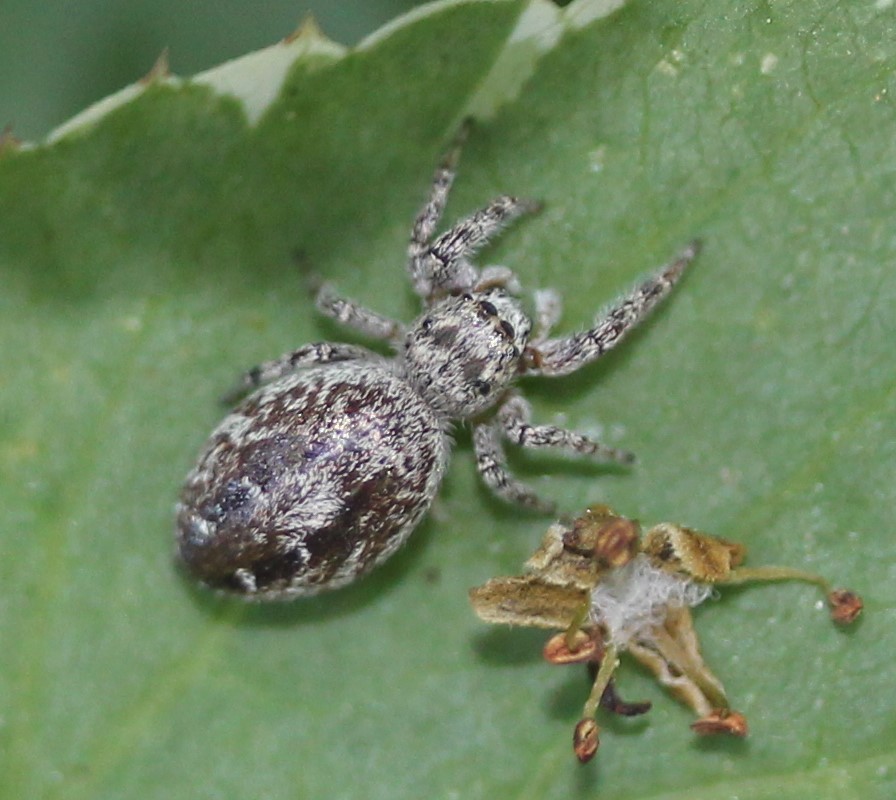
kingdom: Animalia
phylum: Arthropoda
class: Arachnida
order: Araneae
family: Salticidae
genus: Pelegrina
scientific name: Pelegrina aeneola
